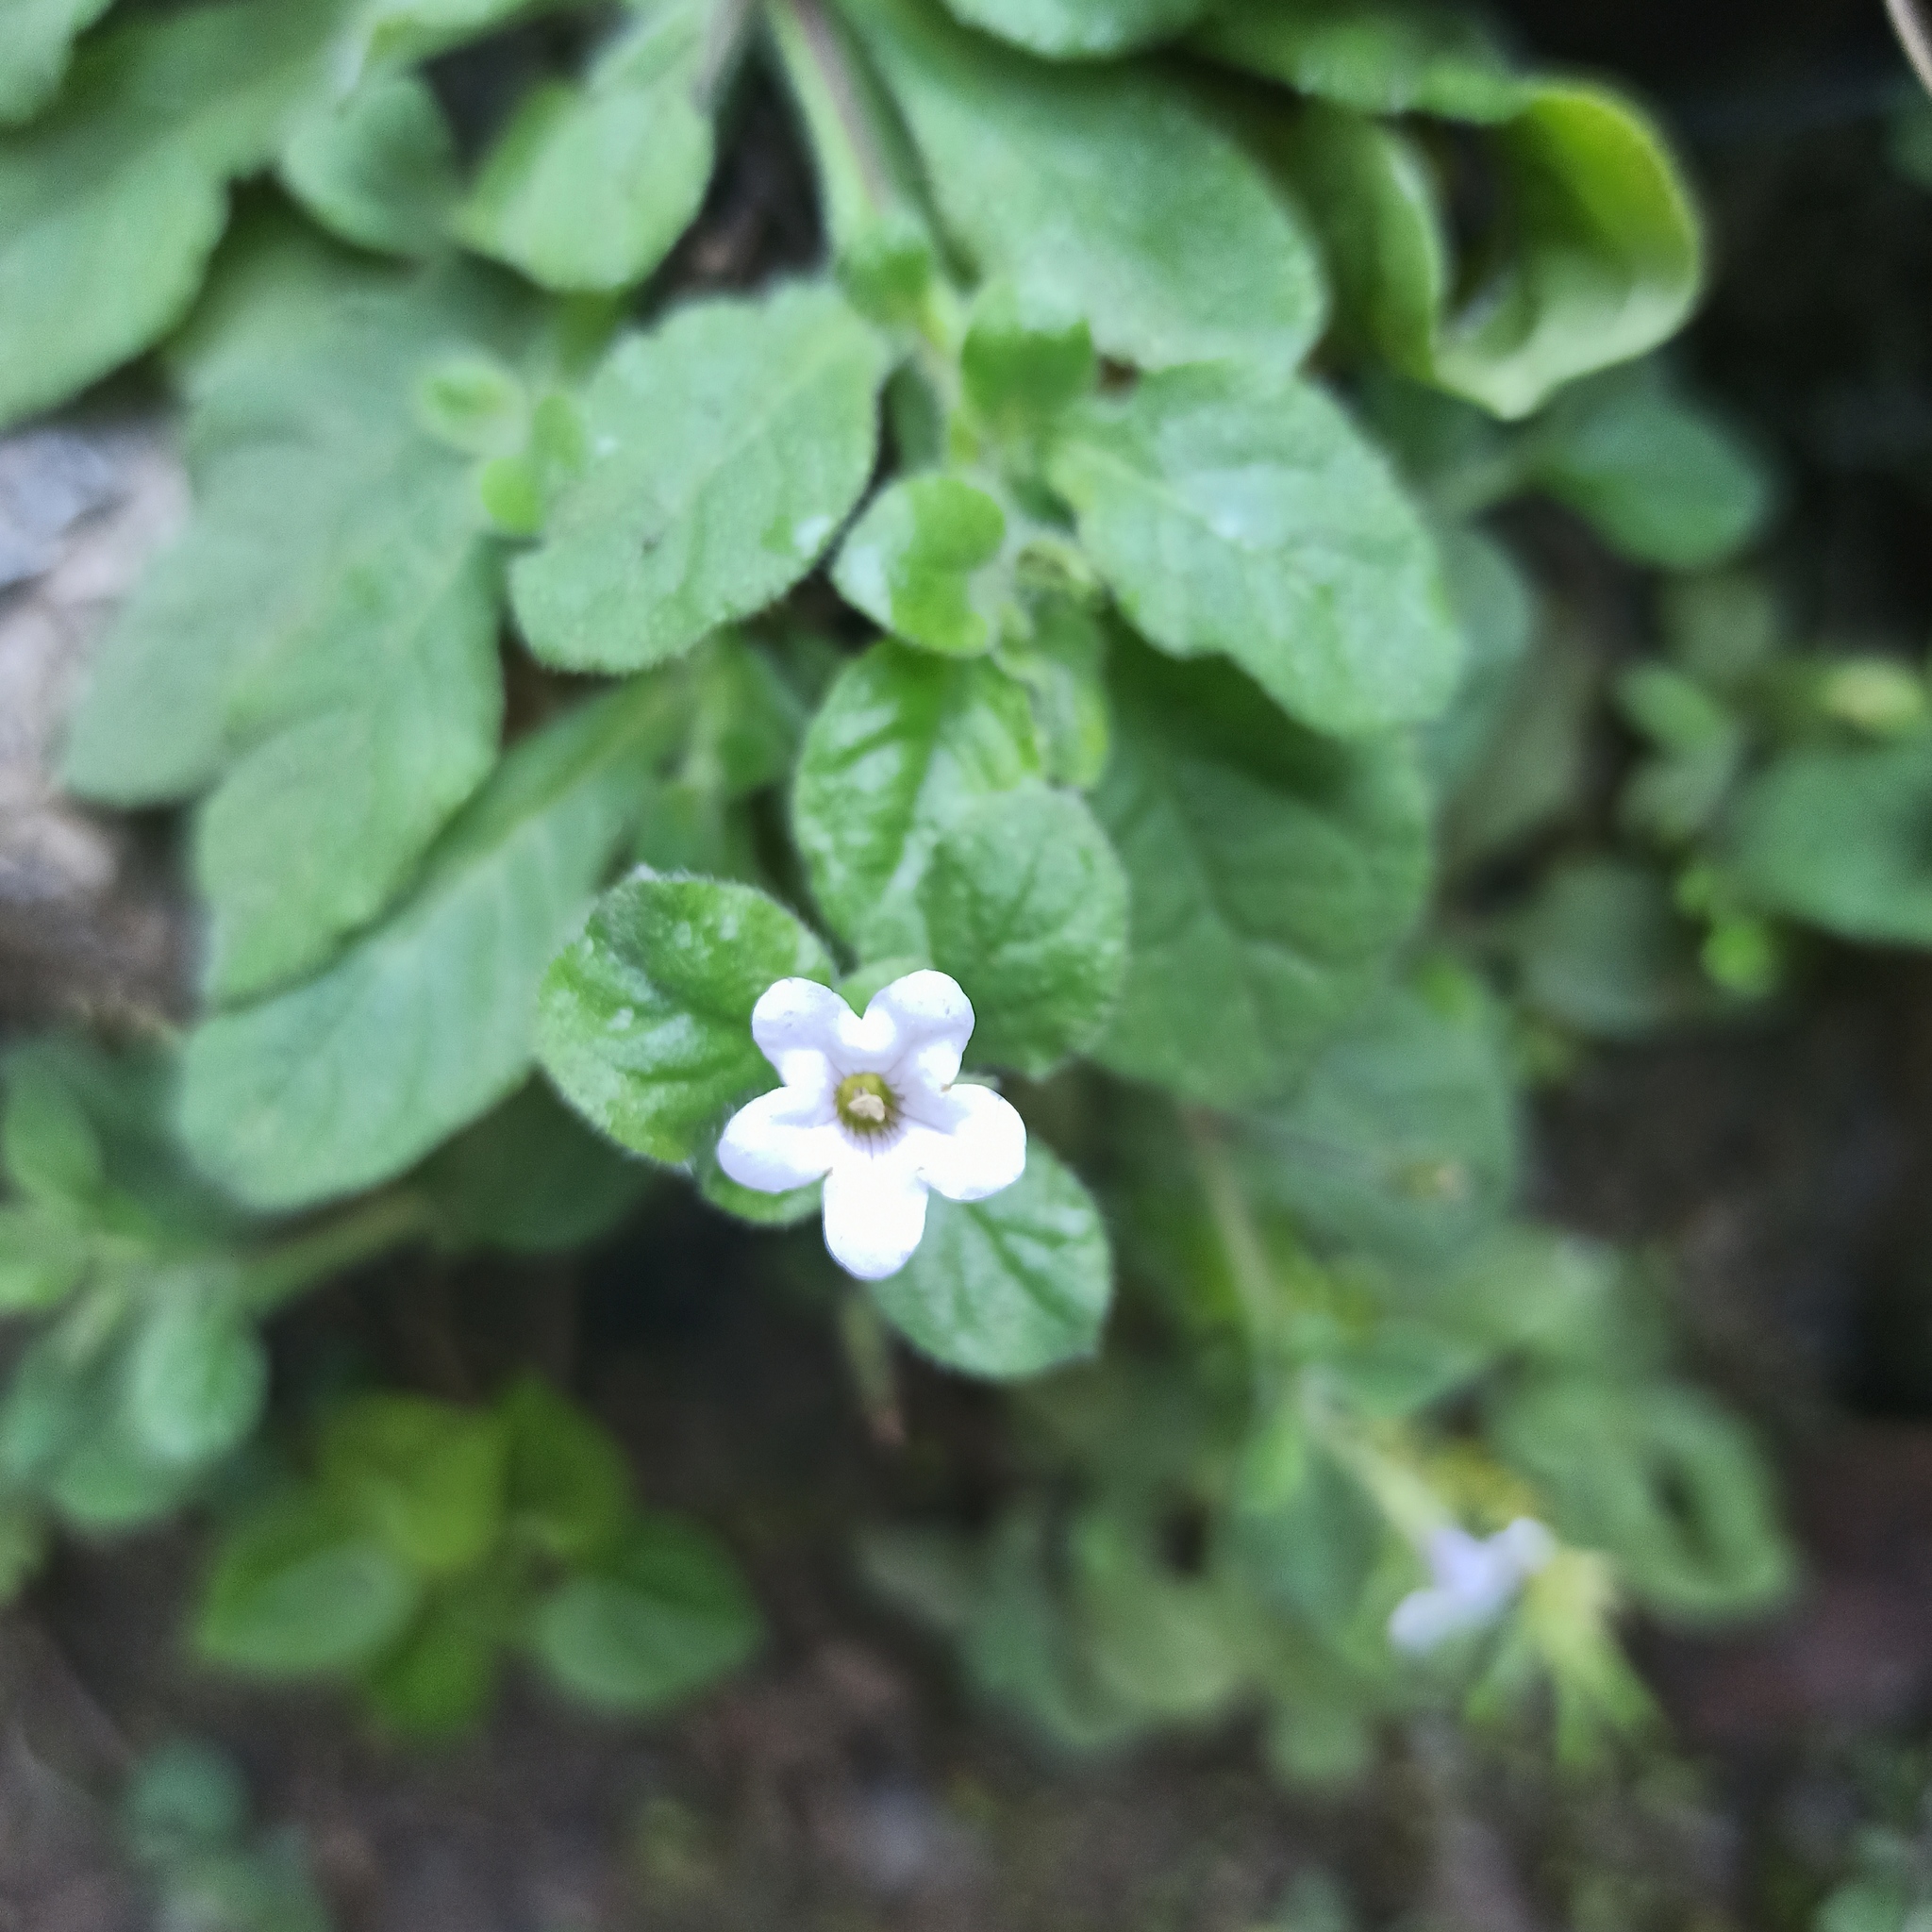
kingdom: Plantae
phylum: Tracheophyta
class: Magnoliopsida
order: Boraginales
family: Namaceae
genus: Nama
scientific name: Nama jamaicensis
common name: Jamaicanweed
